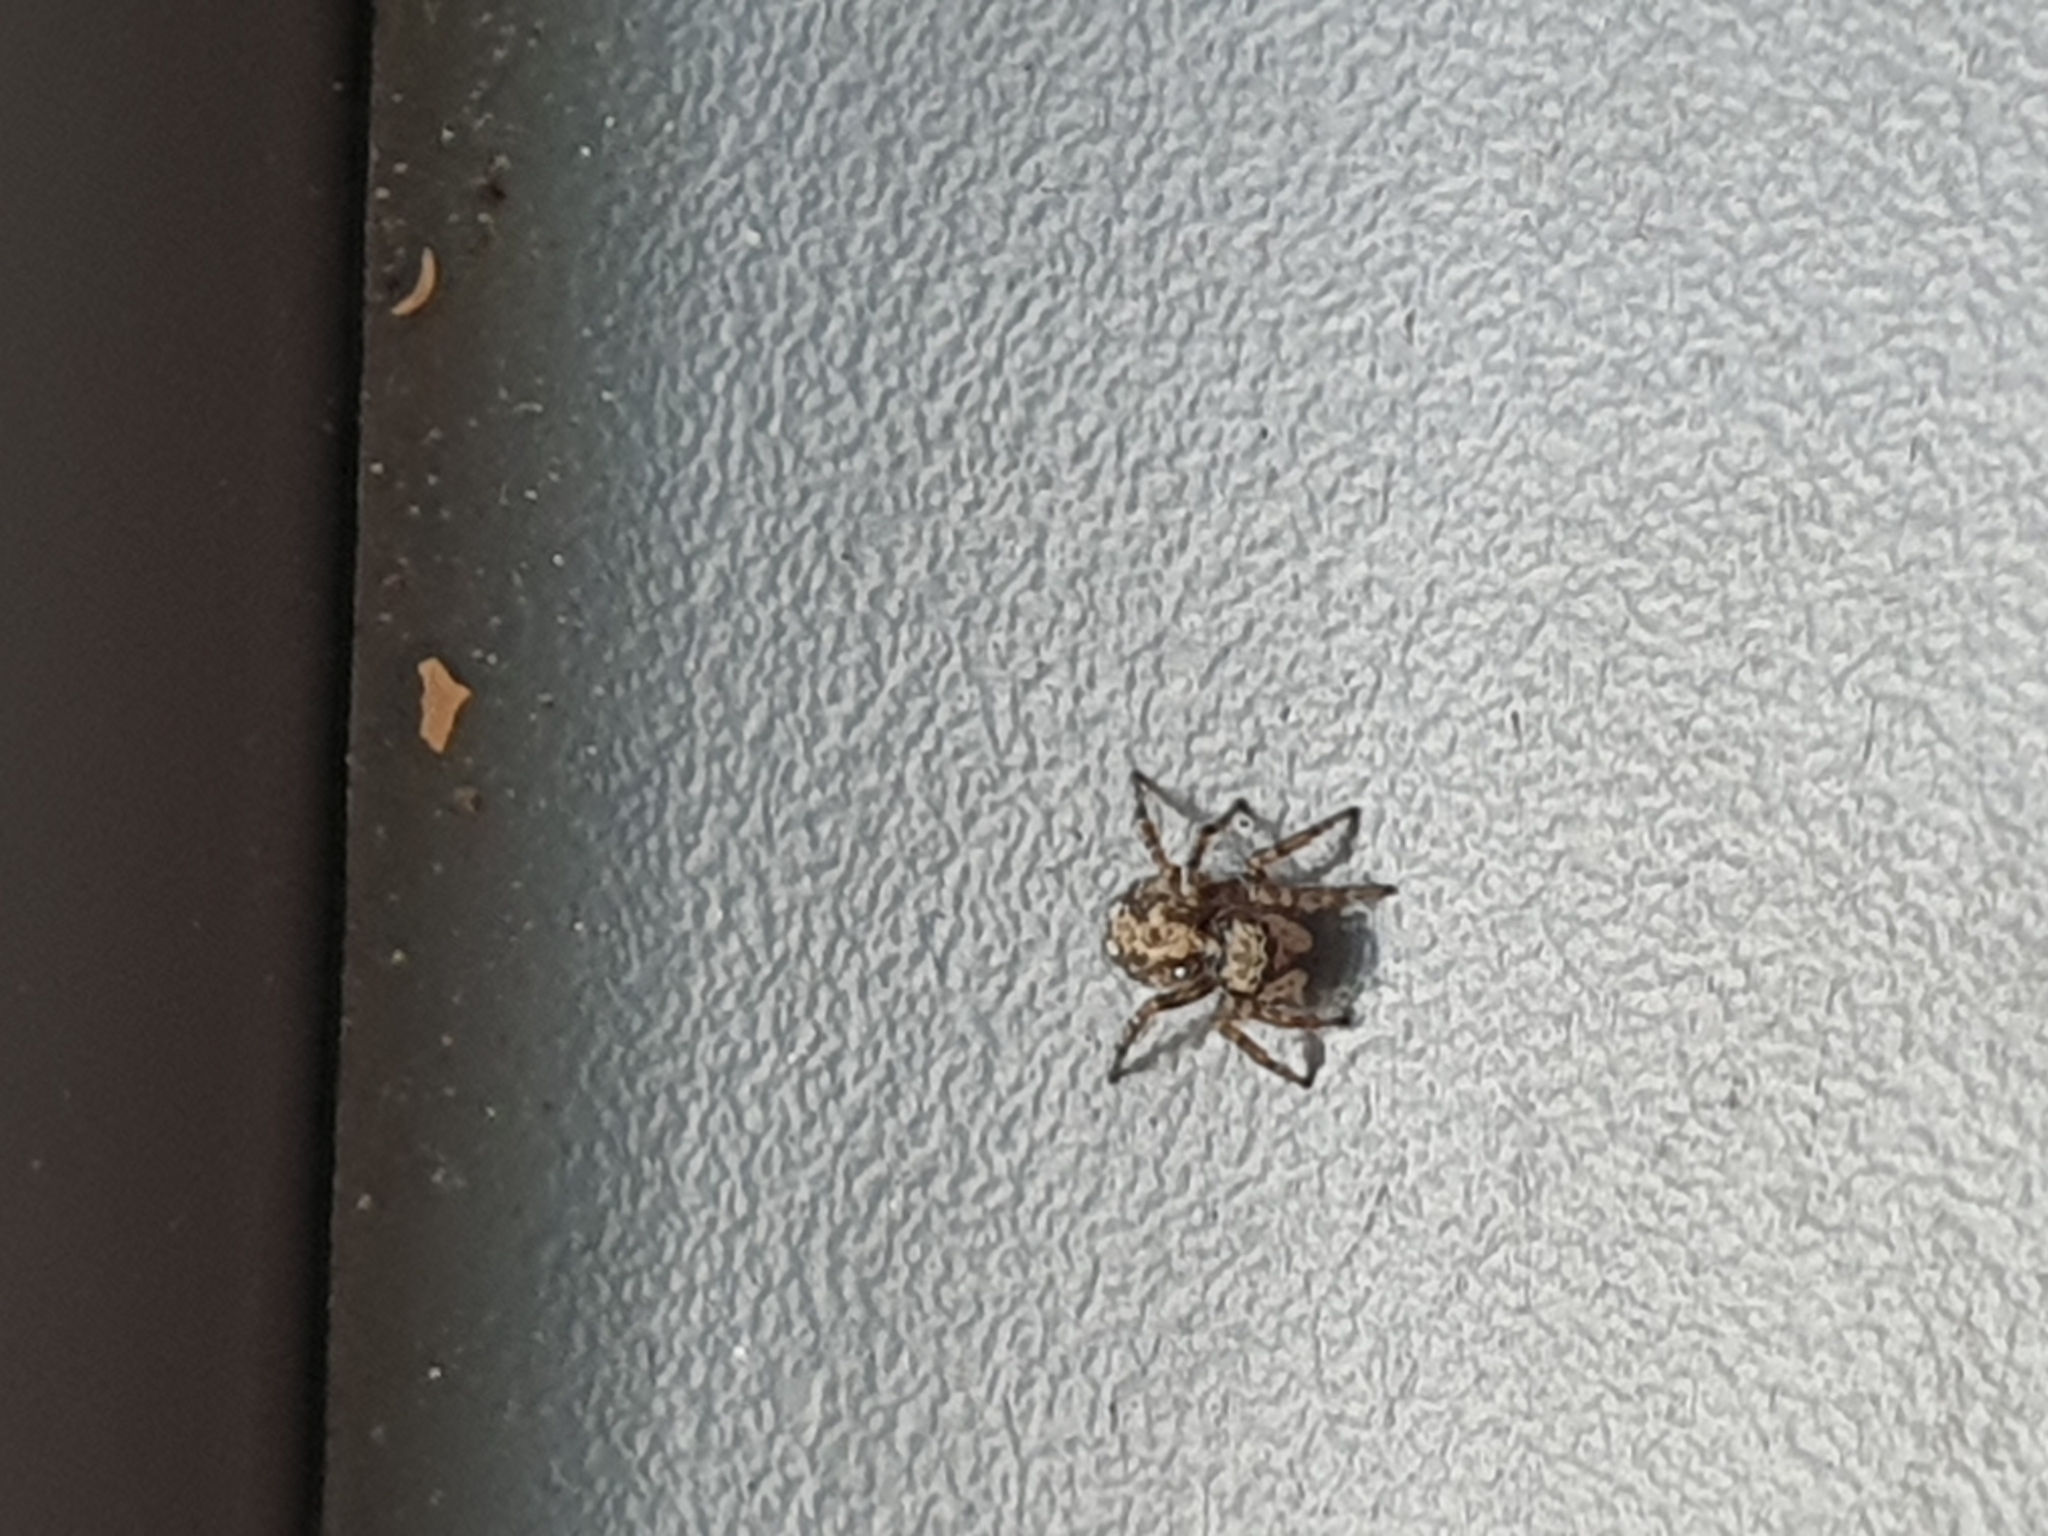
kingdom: Animalia
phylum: Arthropoda
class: Arachnida
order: Araneae
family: Salticidae
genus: Pseudeuophrys
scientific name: Pseudeuophrys lanigera
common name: Jumping spider
